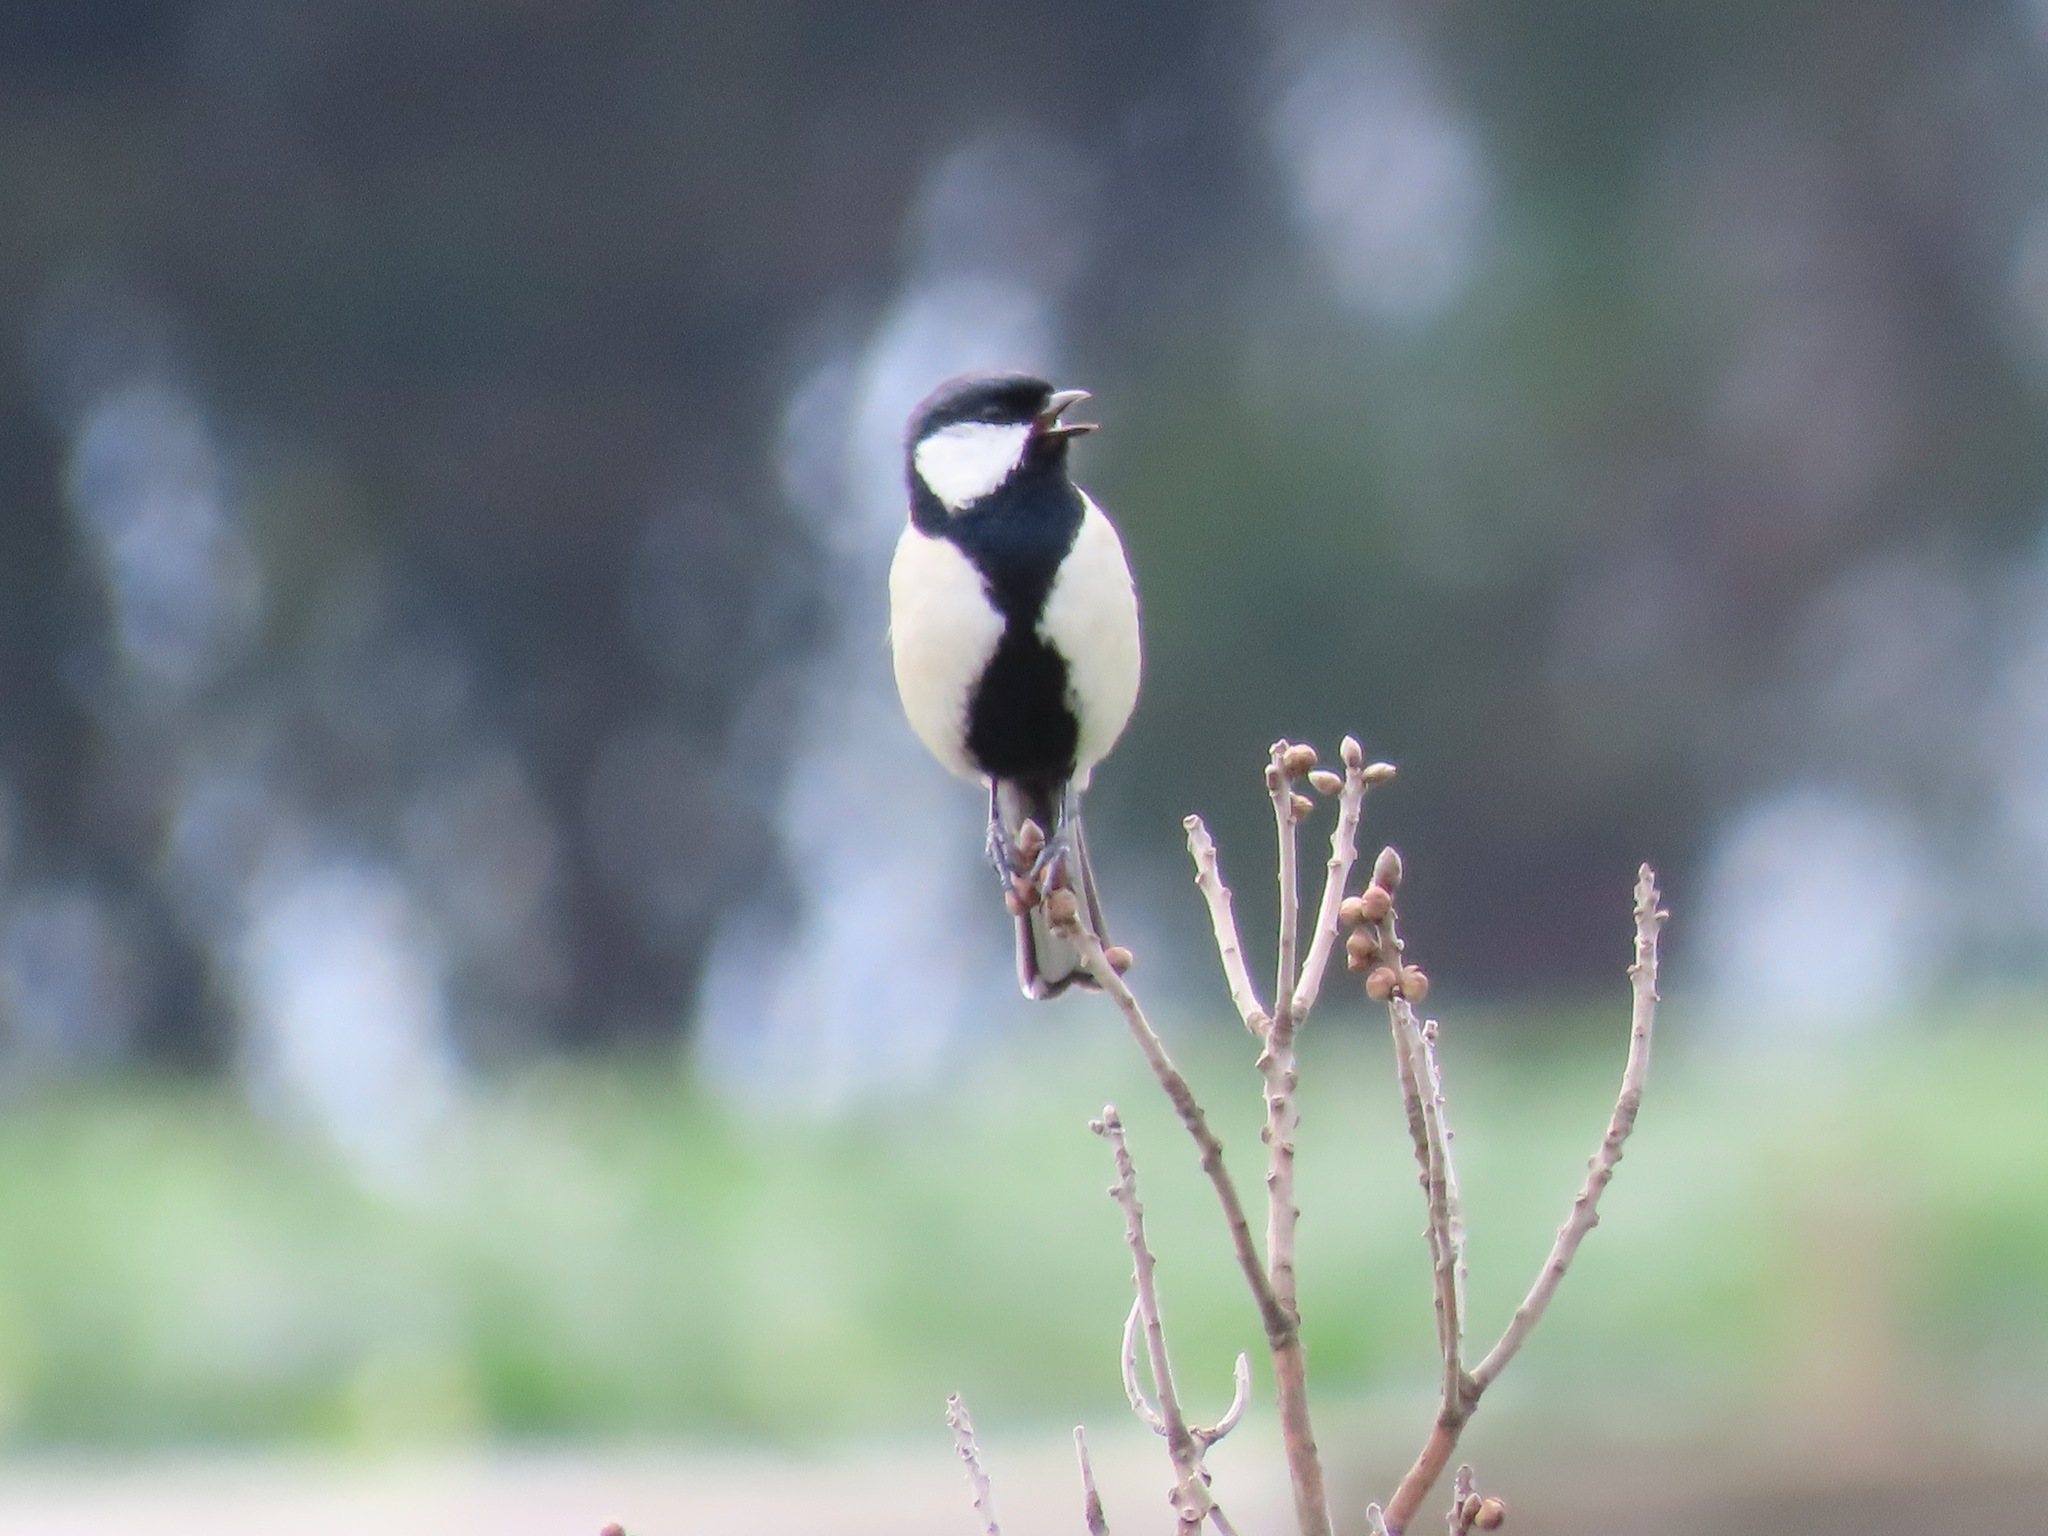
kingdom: Animalia
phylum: Chordata
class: Aves
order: Passeriformes
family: Paridae
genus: Parus
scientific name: Parus minor
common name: Japanese tit
